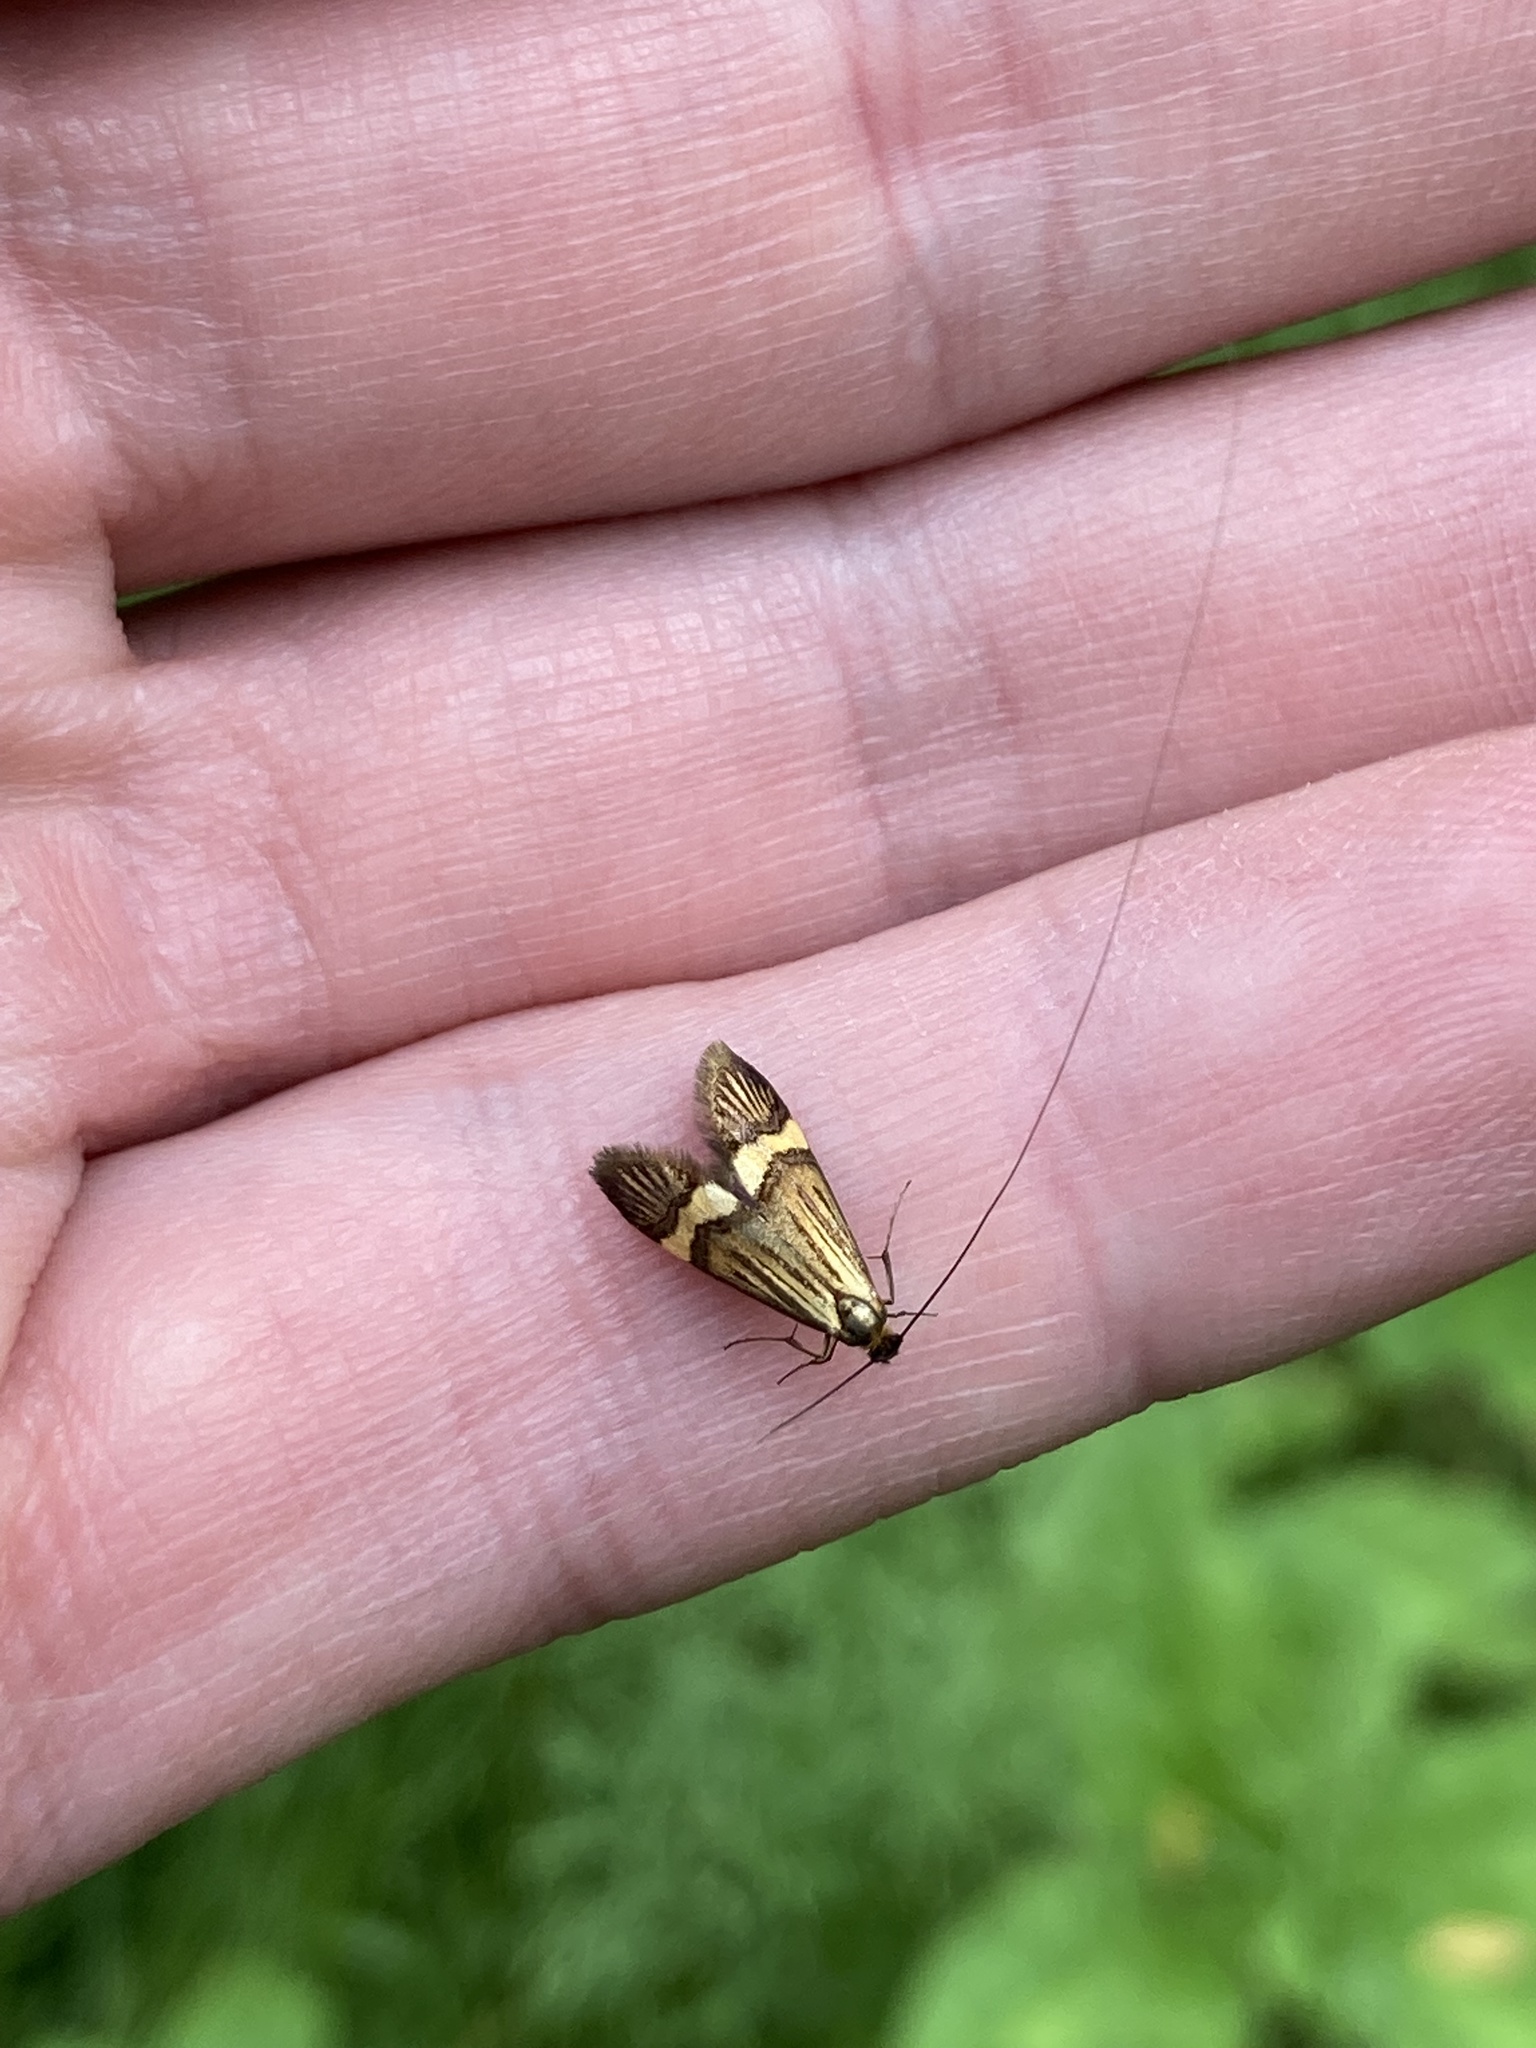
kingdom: Animalia
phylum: Arthropoda
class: Insecta
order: Lepidoptera
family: Adelidae
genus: Nemophora
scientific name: Nemophora degeerella
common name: Yellow-barred long-horn
